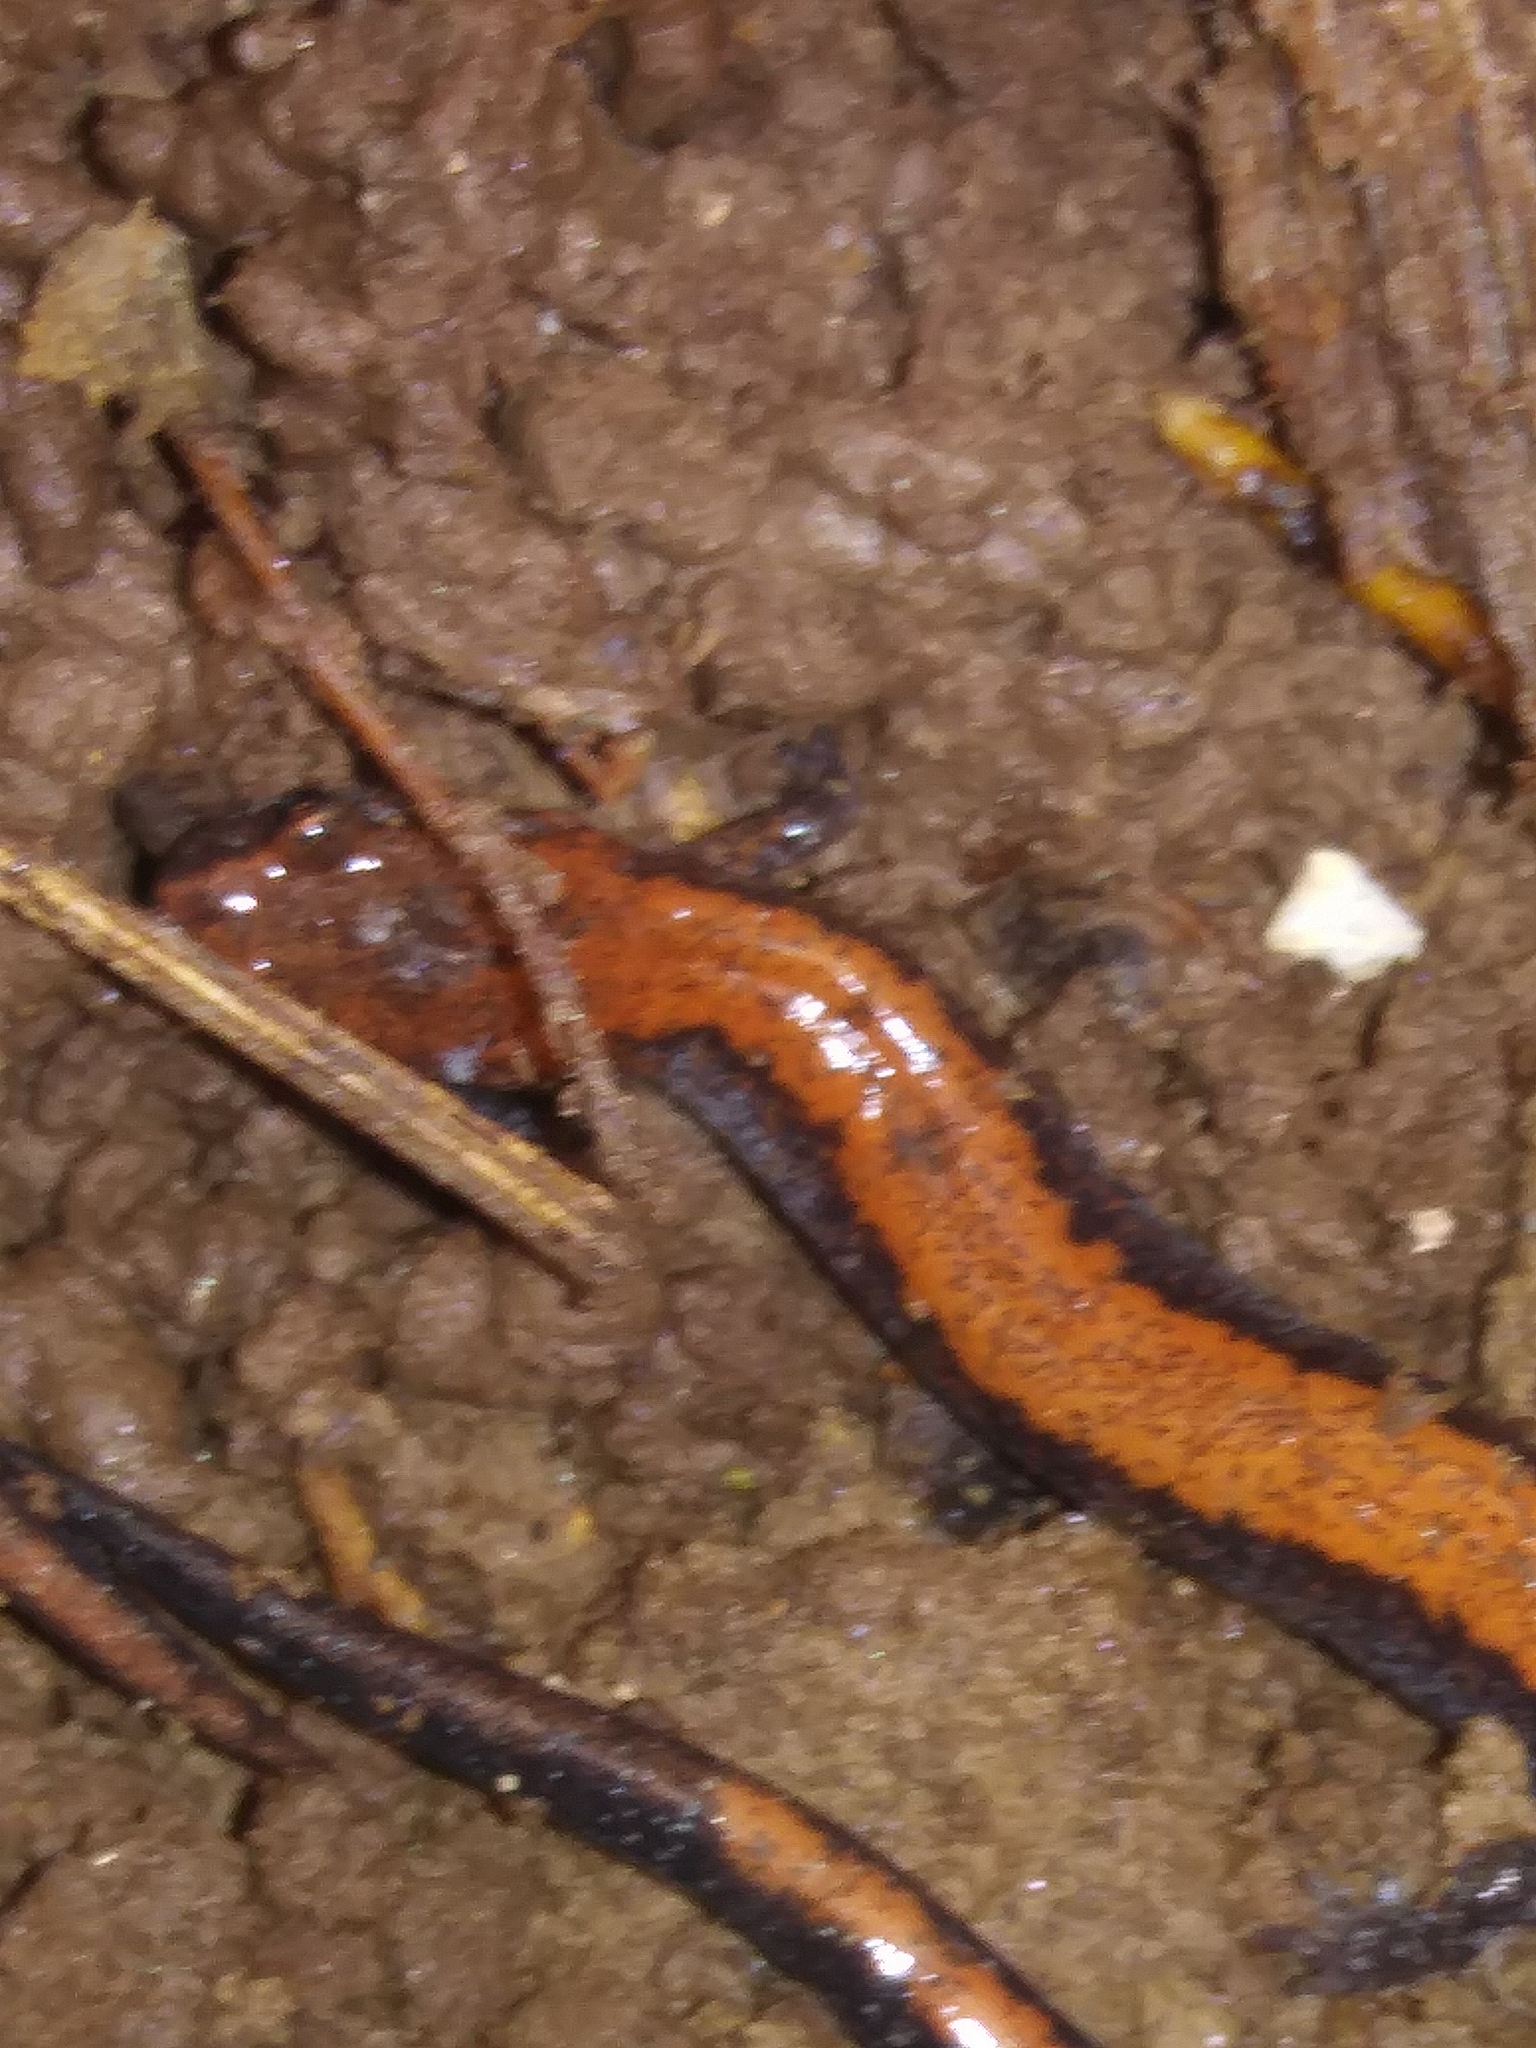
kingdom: Animalia
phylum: Chordata
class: Amphibia
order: Caudata
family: Plethodontidae
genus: Plethodon
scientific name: Plethodon cinereus
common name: Redback salamander
